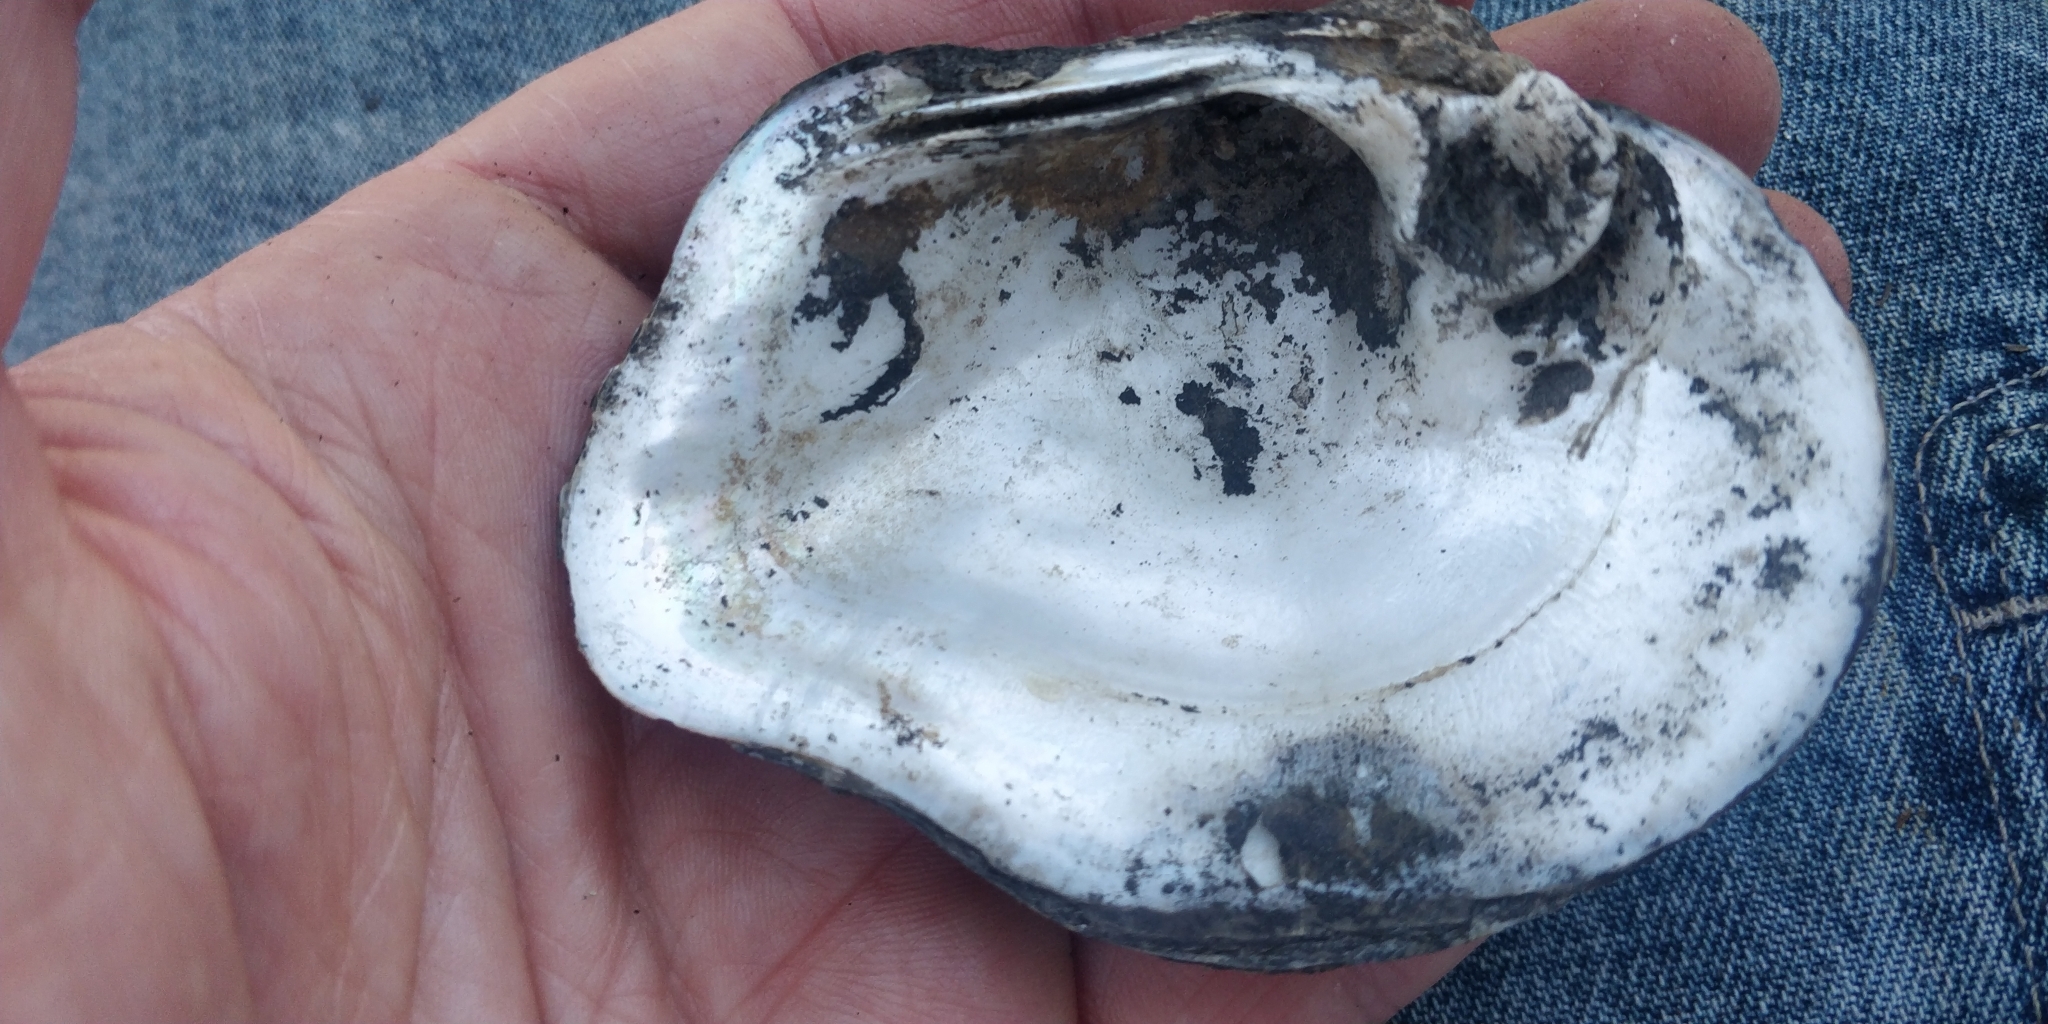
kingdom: Animalia
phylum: Mollusca
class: Bivalvia
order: Unionida
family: Unionidae
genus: Quadrula
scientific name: Quadrula quadrula
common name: Mapleleaf
